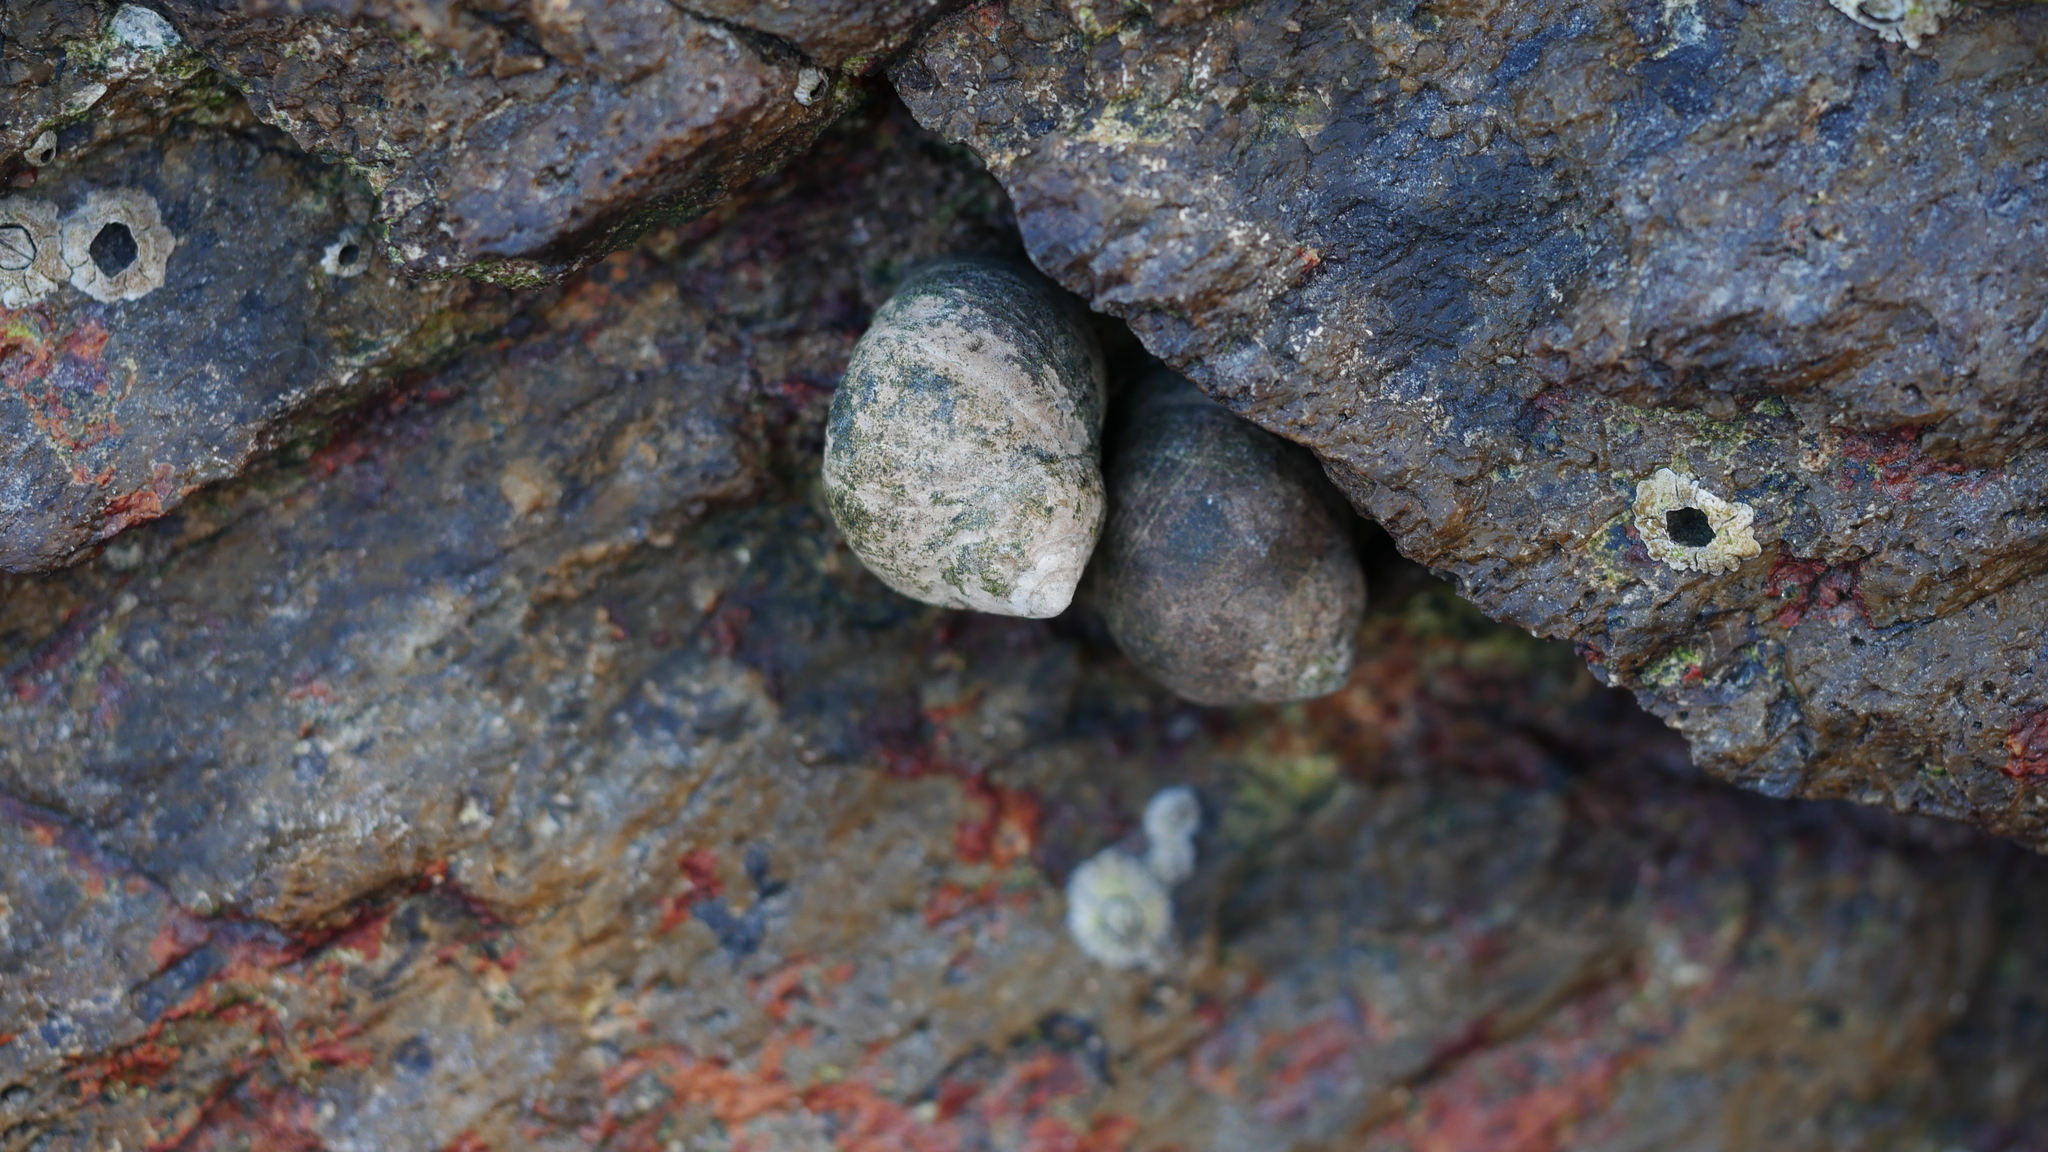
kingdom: Animalia
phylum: Mollusca
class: Gastropoda
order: Littorinimorpha
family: Littorinidae
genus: Littorina
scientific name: Littorina littorea
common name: Common periwinkle
